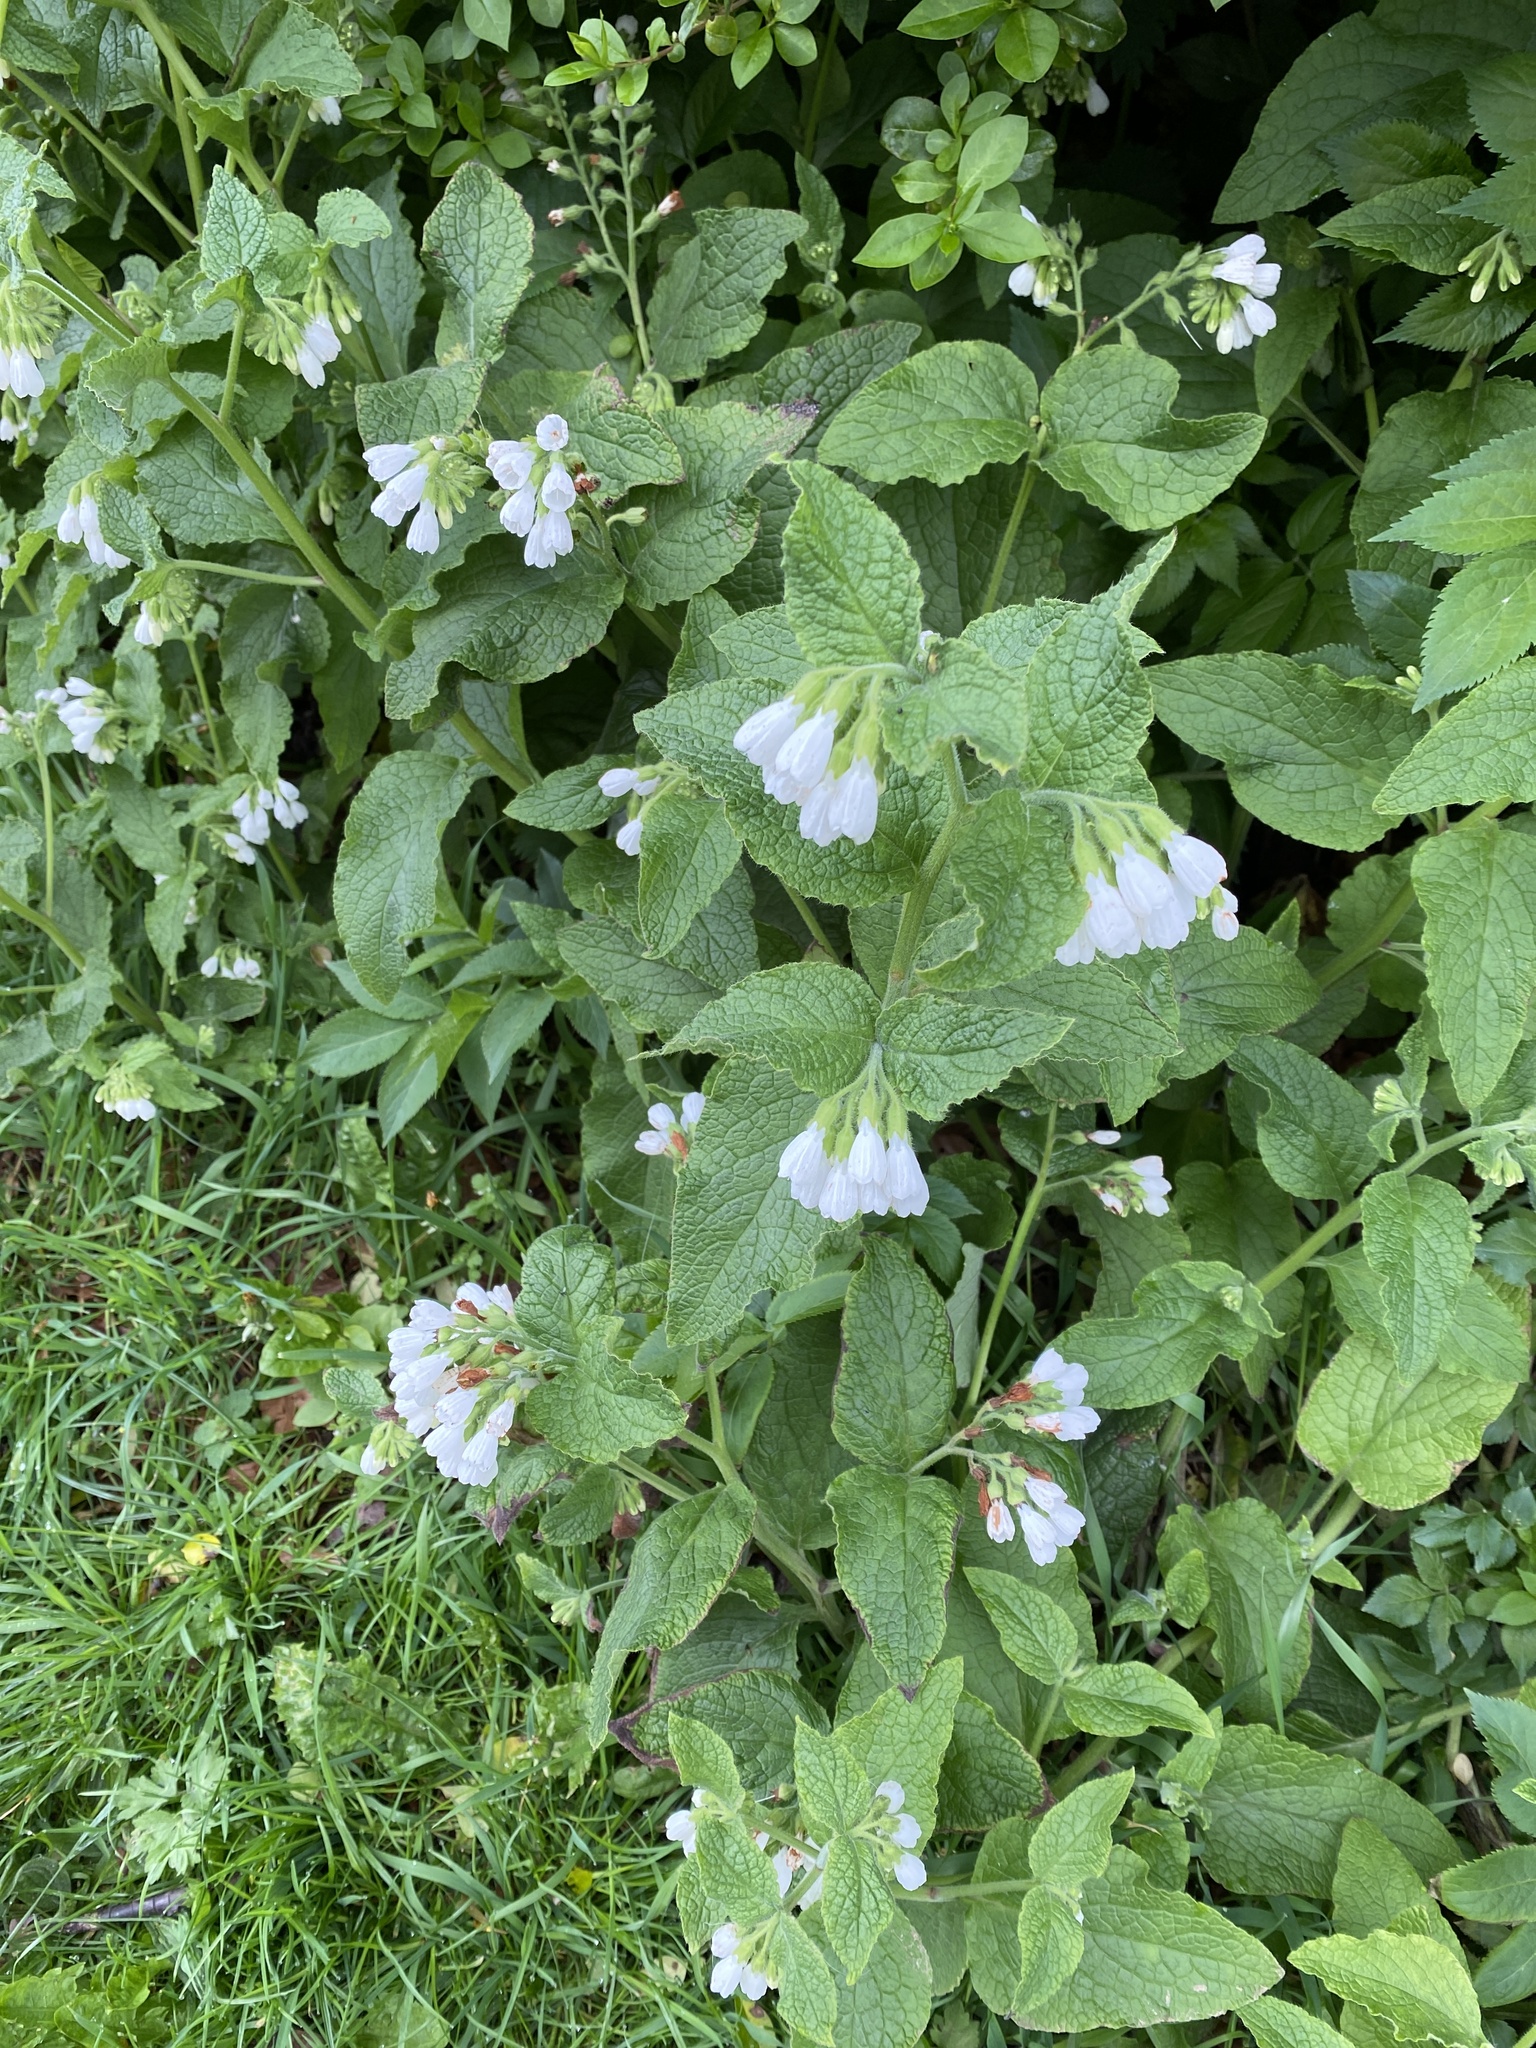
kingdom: Plantae
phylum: Tracheophyta
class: Magnoliopsida
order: Boraginales
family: Boraginaceae
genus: Symphytum
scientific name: Symphytum orientale
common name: White comfrey
